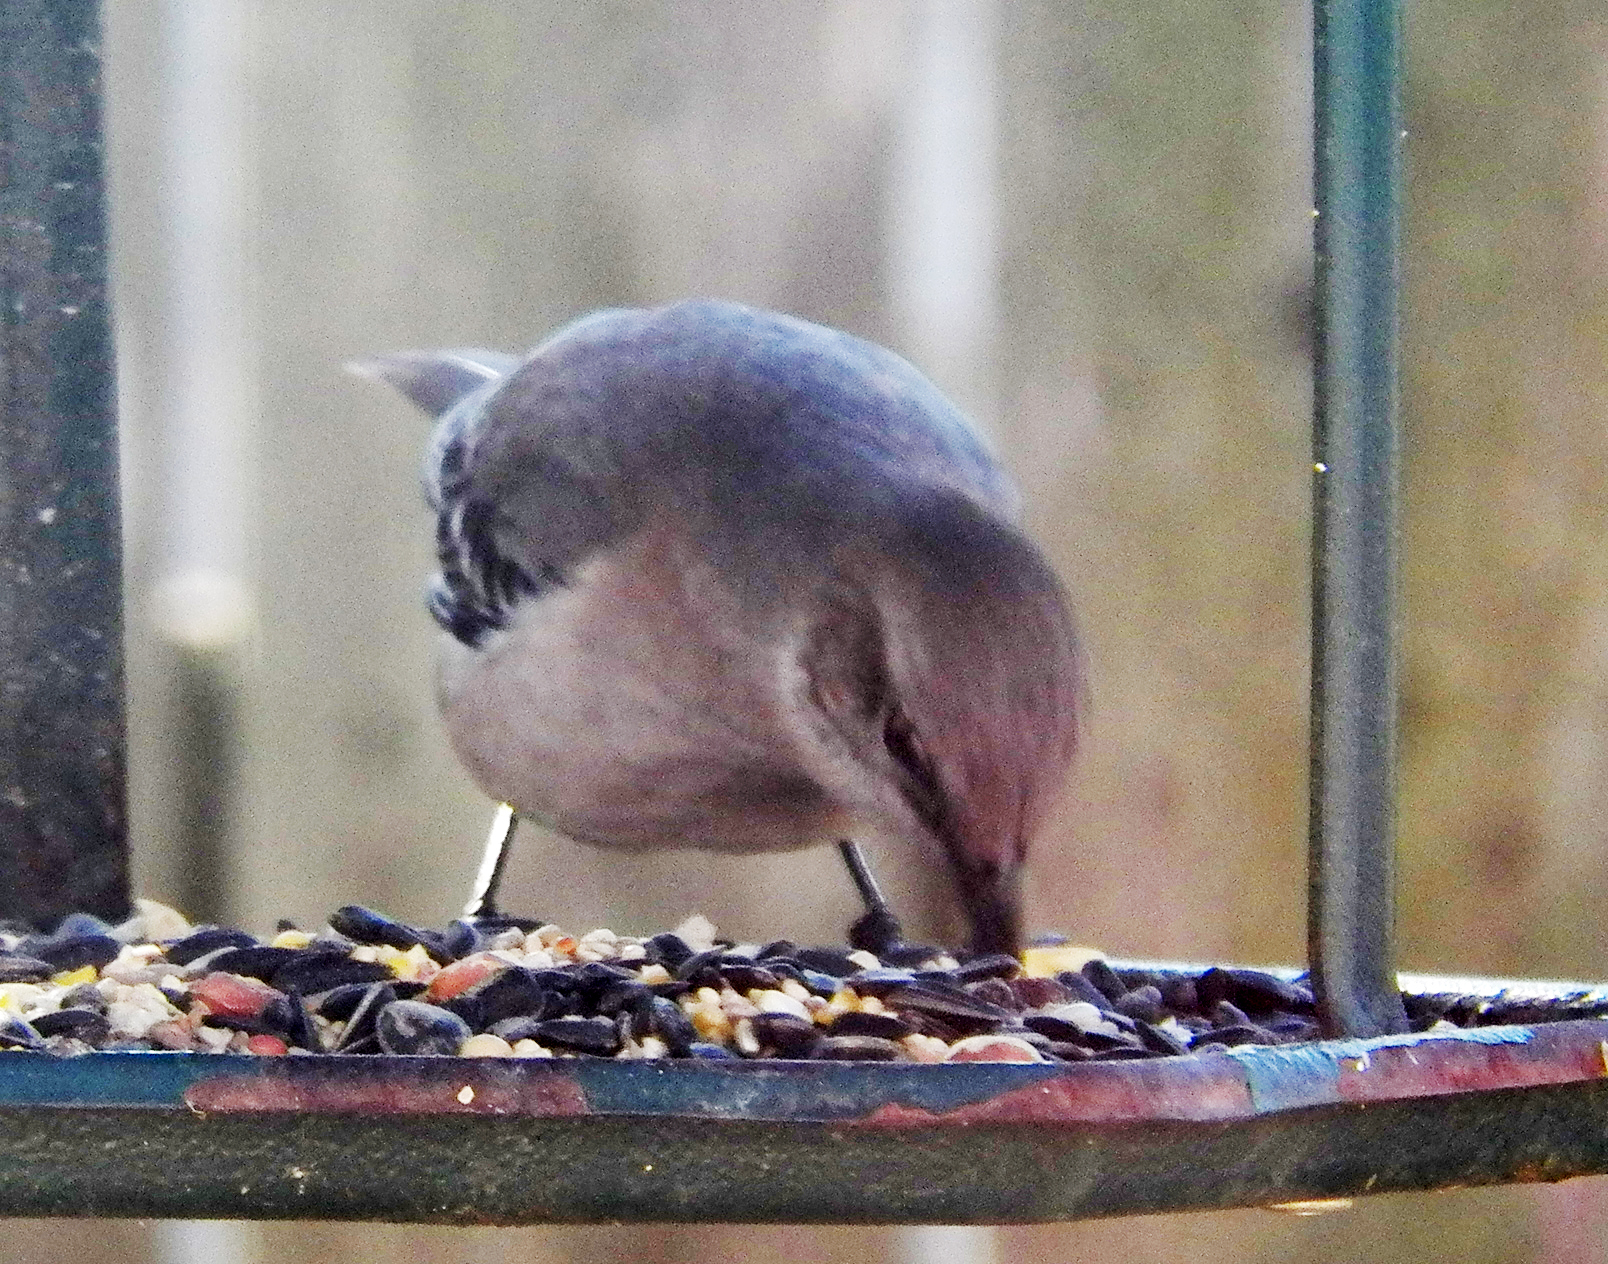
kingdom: Animalia
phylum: Chordata
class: Aves
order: Passeriformes
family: Mimidae
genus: Mimus
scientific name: Mimus polyglottos
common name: Northern mockingbird
